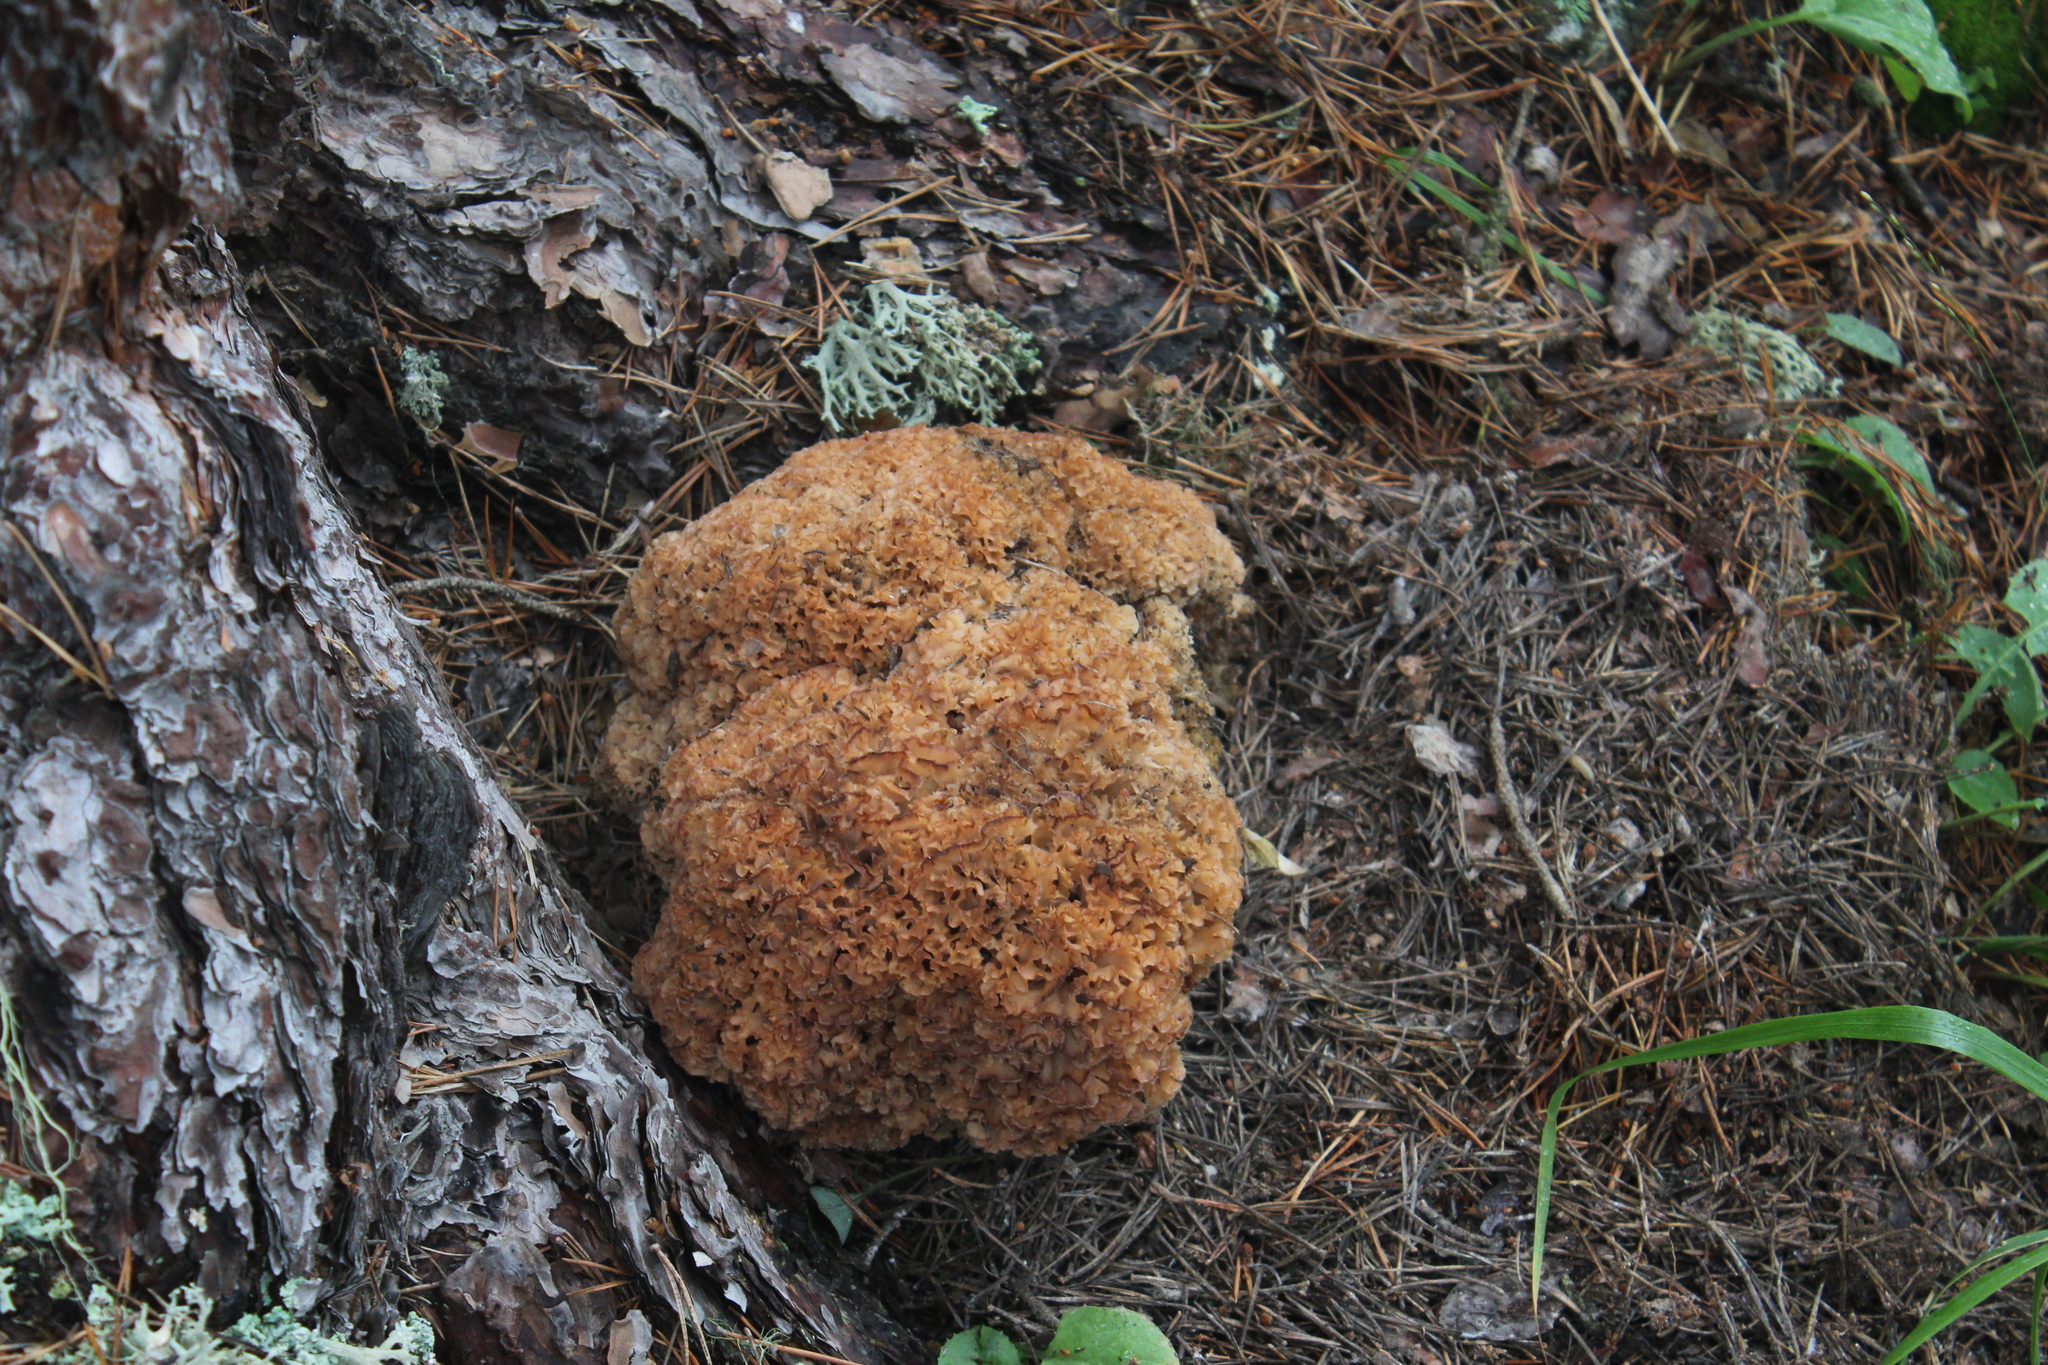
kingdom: Fungi
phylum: Basidiomycota
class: Agaricomycetes
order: Polyporales
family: Sparassidaceae
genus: Sparassis
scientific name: Sparassis crispa
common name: Brain fungus
